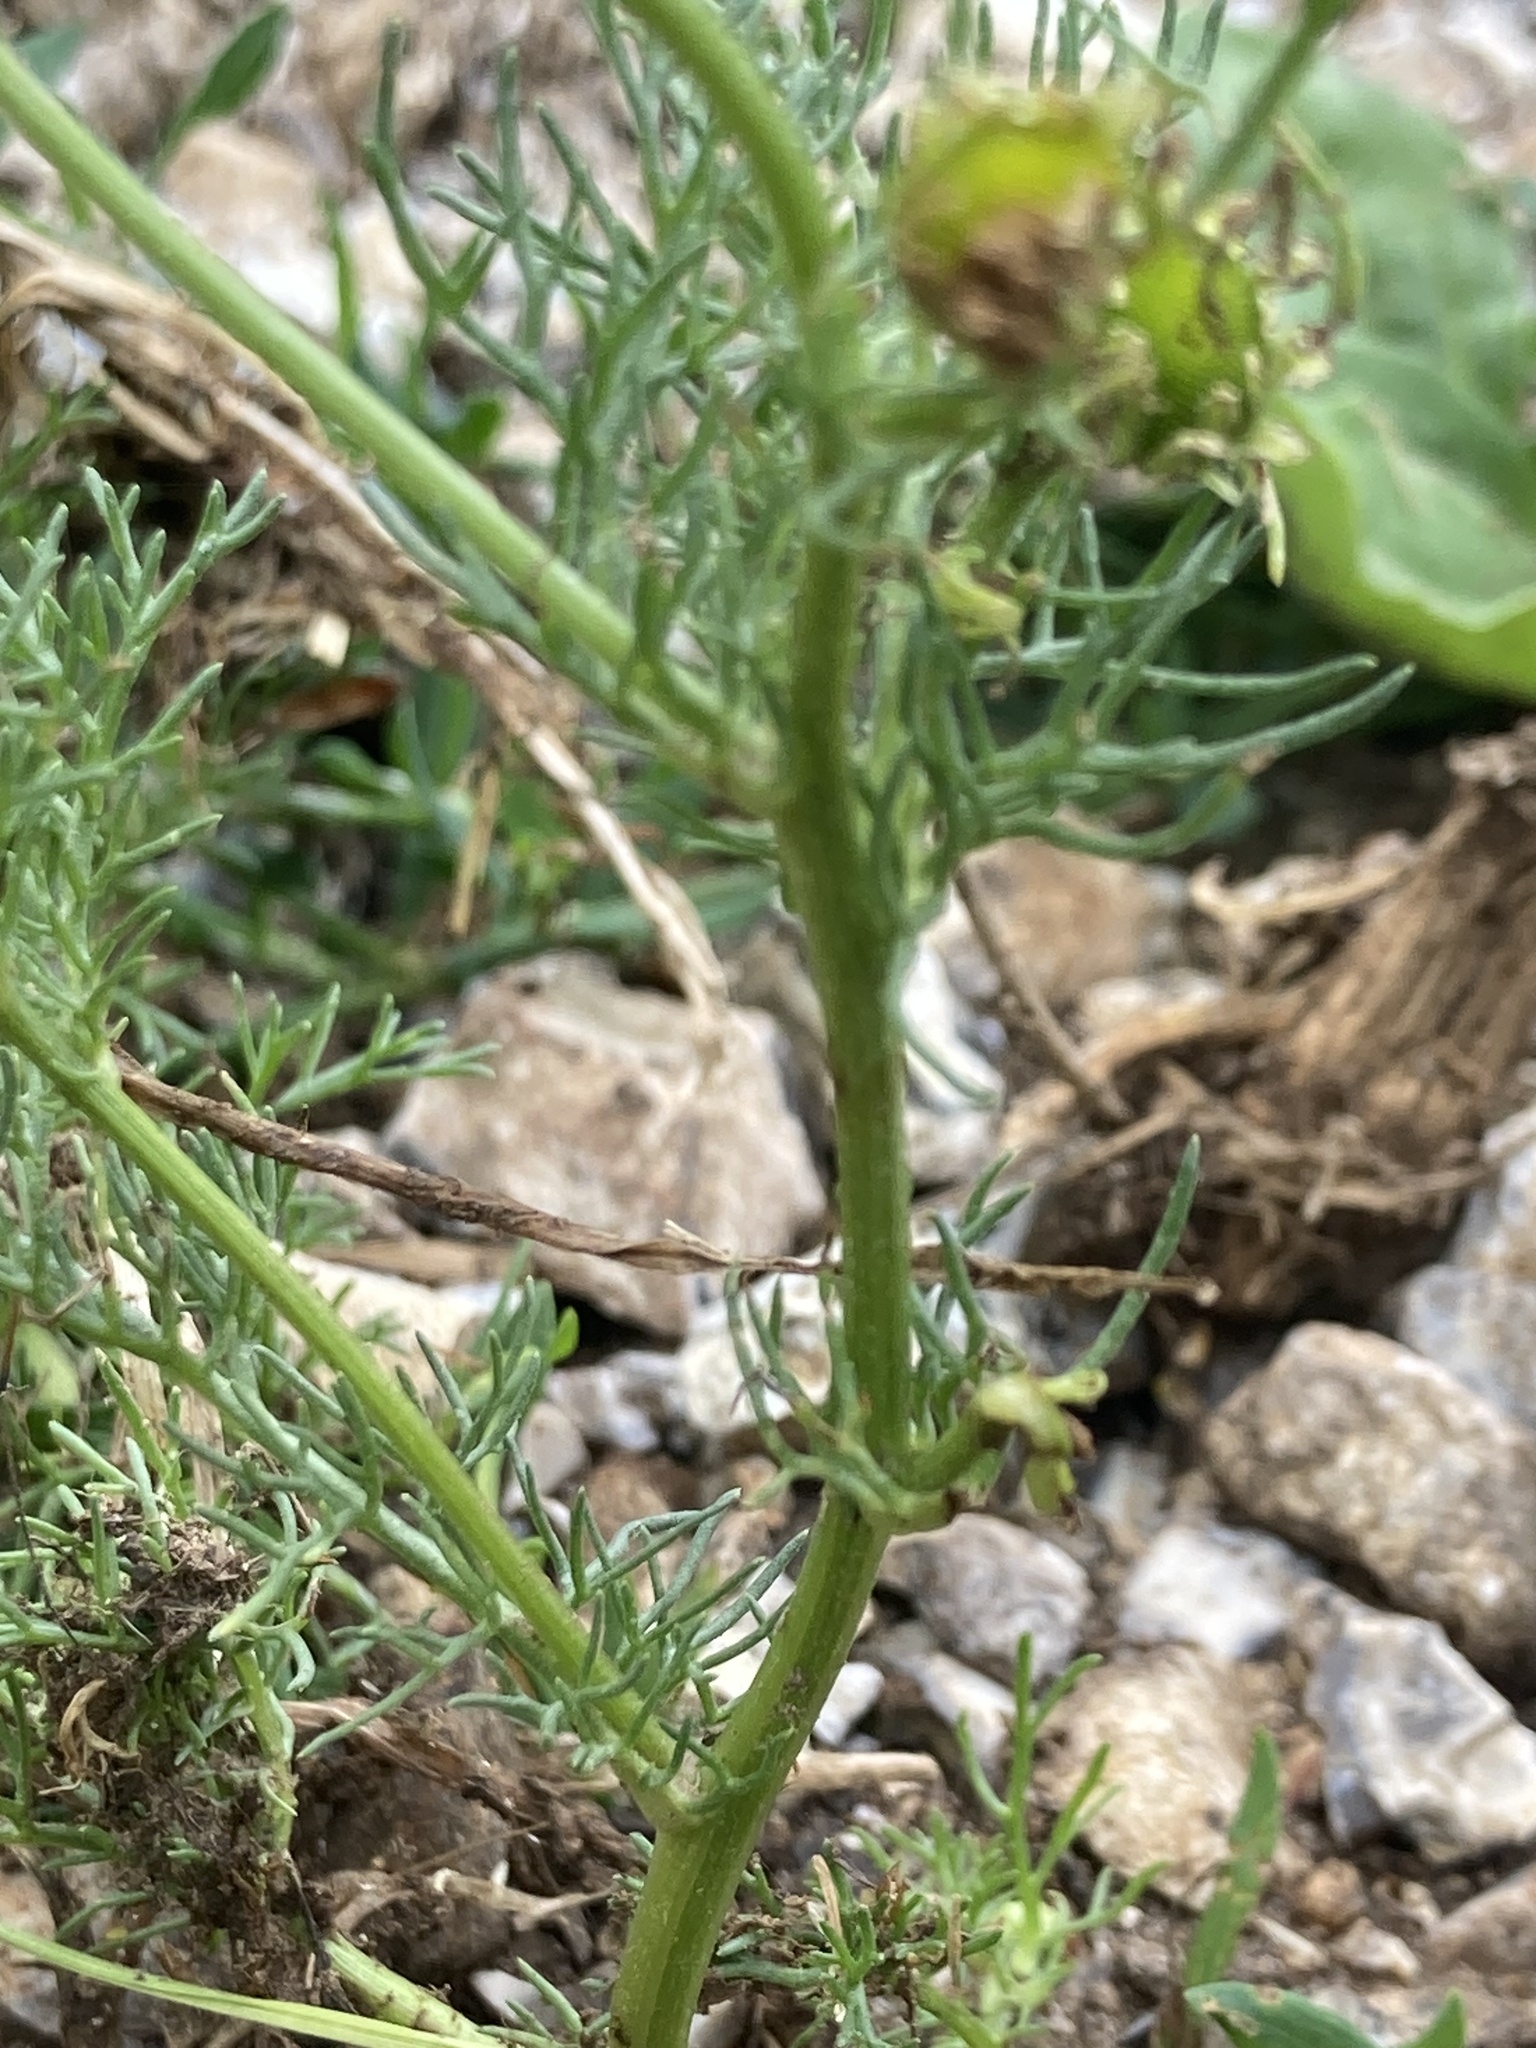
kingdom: Plantae
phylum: Tracheophyta
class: Magnoliopsida
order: Asterales
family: Asteraceae
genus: Tripleurospermum
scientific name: Tripleurospermum inodorum
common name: Scentless mayweed
